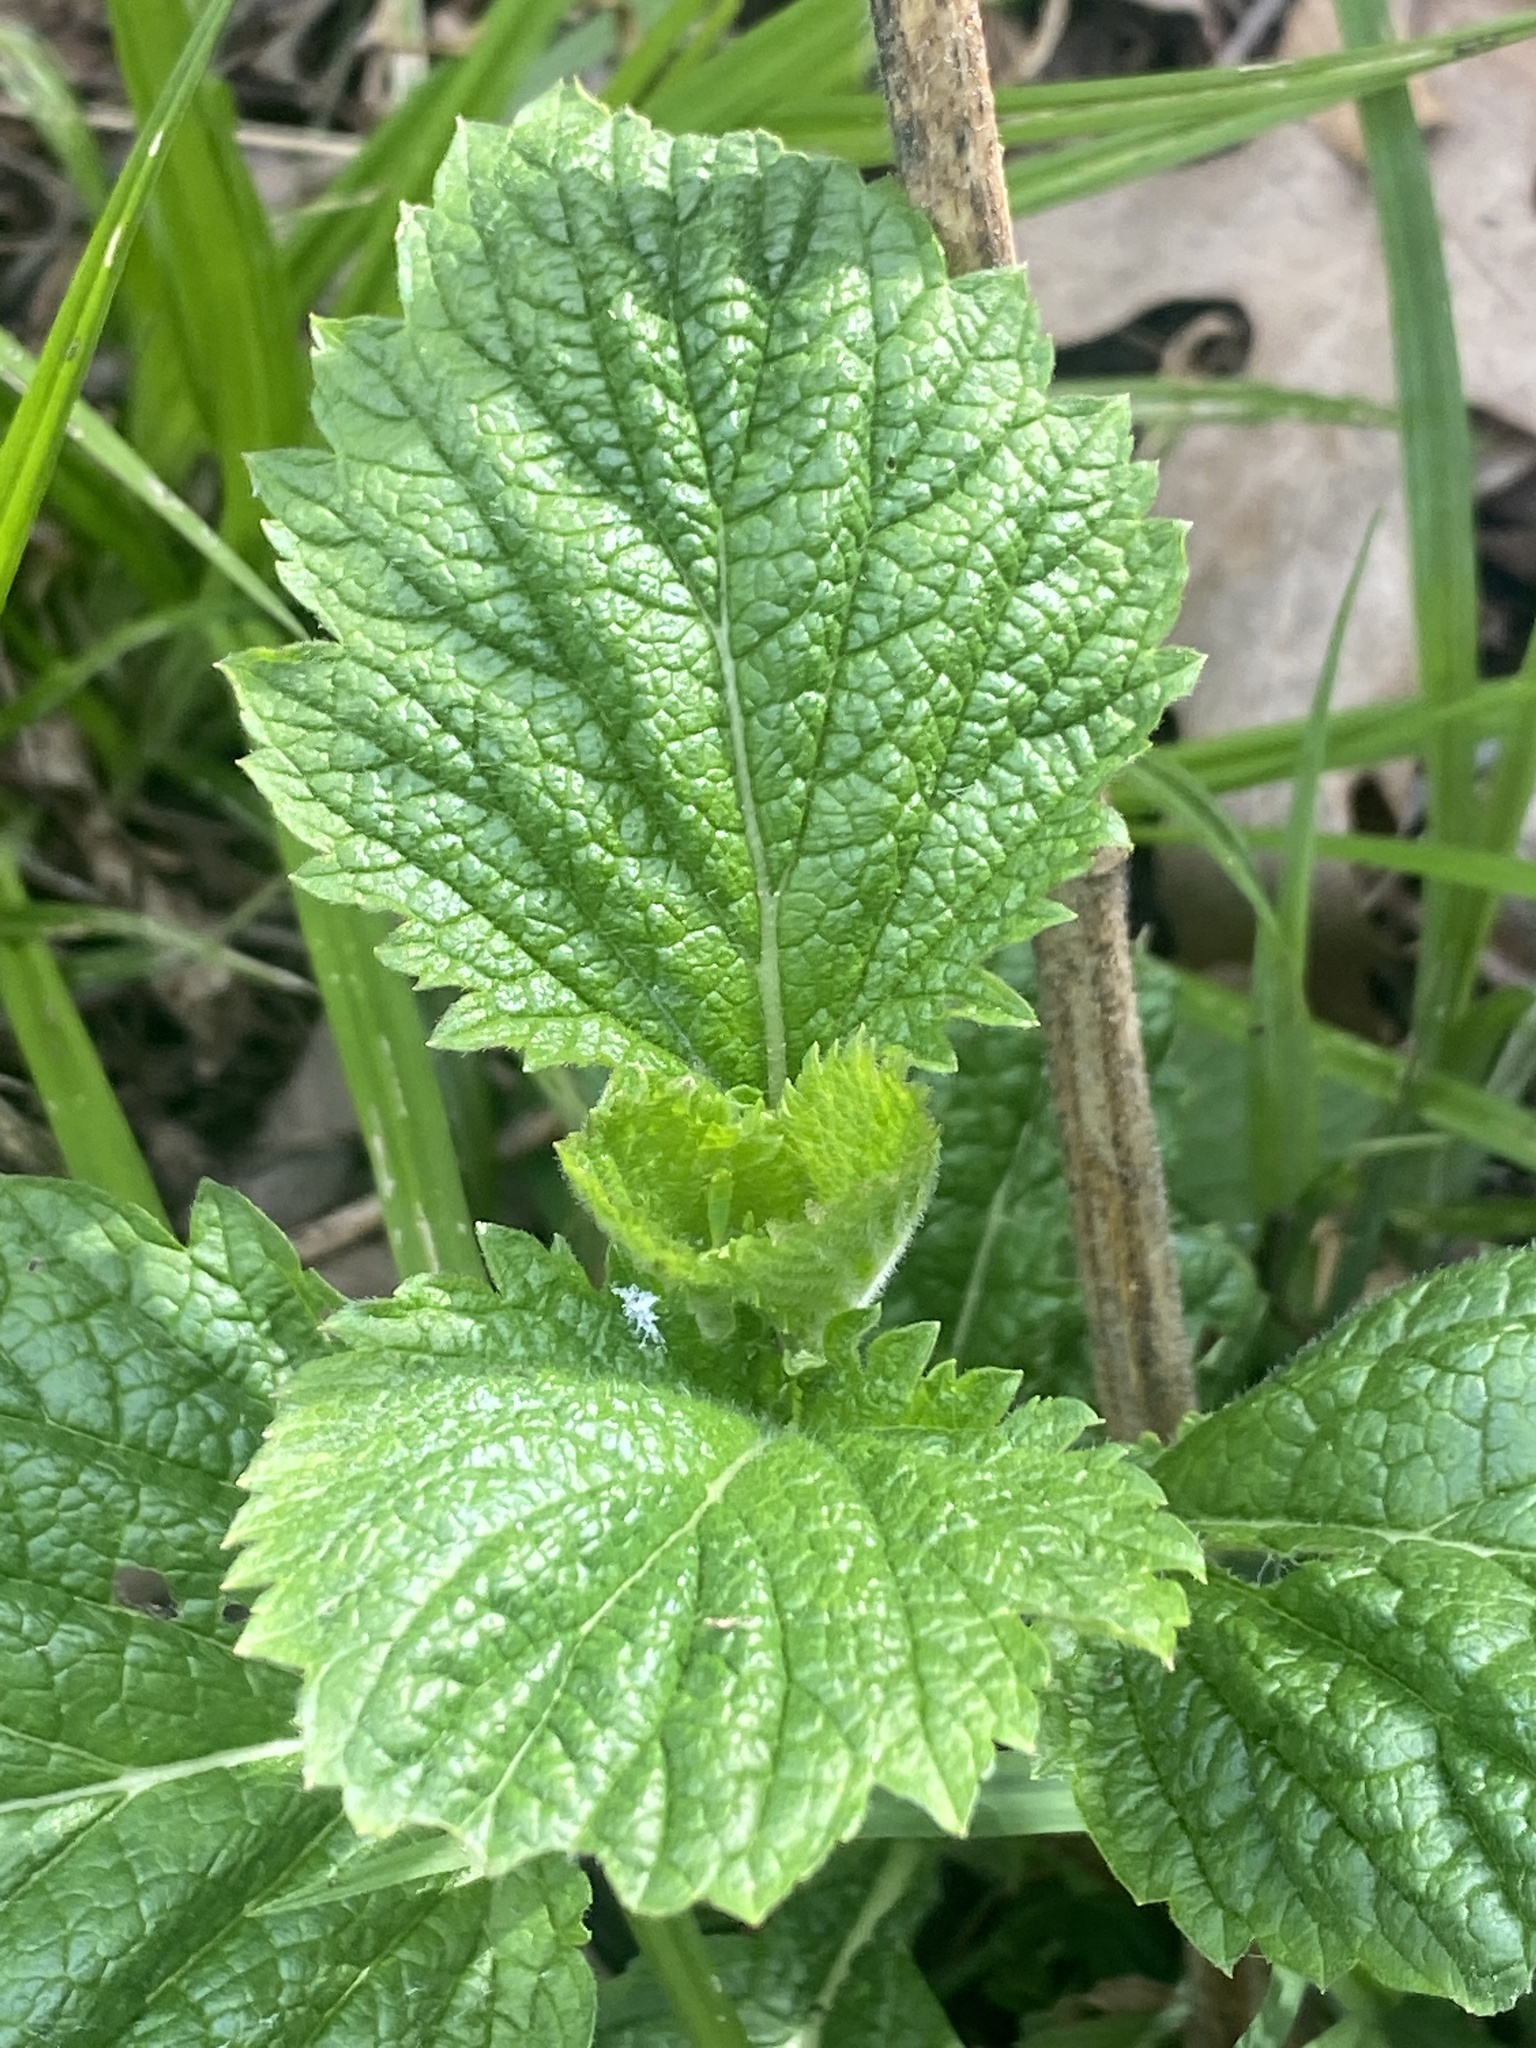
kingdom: Plantae
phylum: Tracheophyta
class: Magnoliopsida
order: Lamiales
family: Verbenaceae
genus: Verbena
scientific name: Verbena urticifolia
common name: Nettle-leaved vervain
